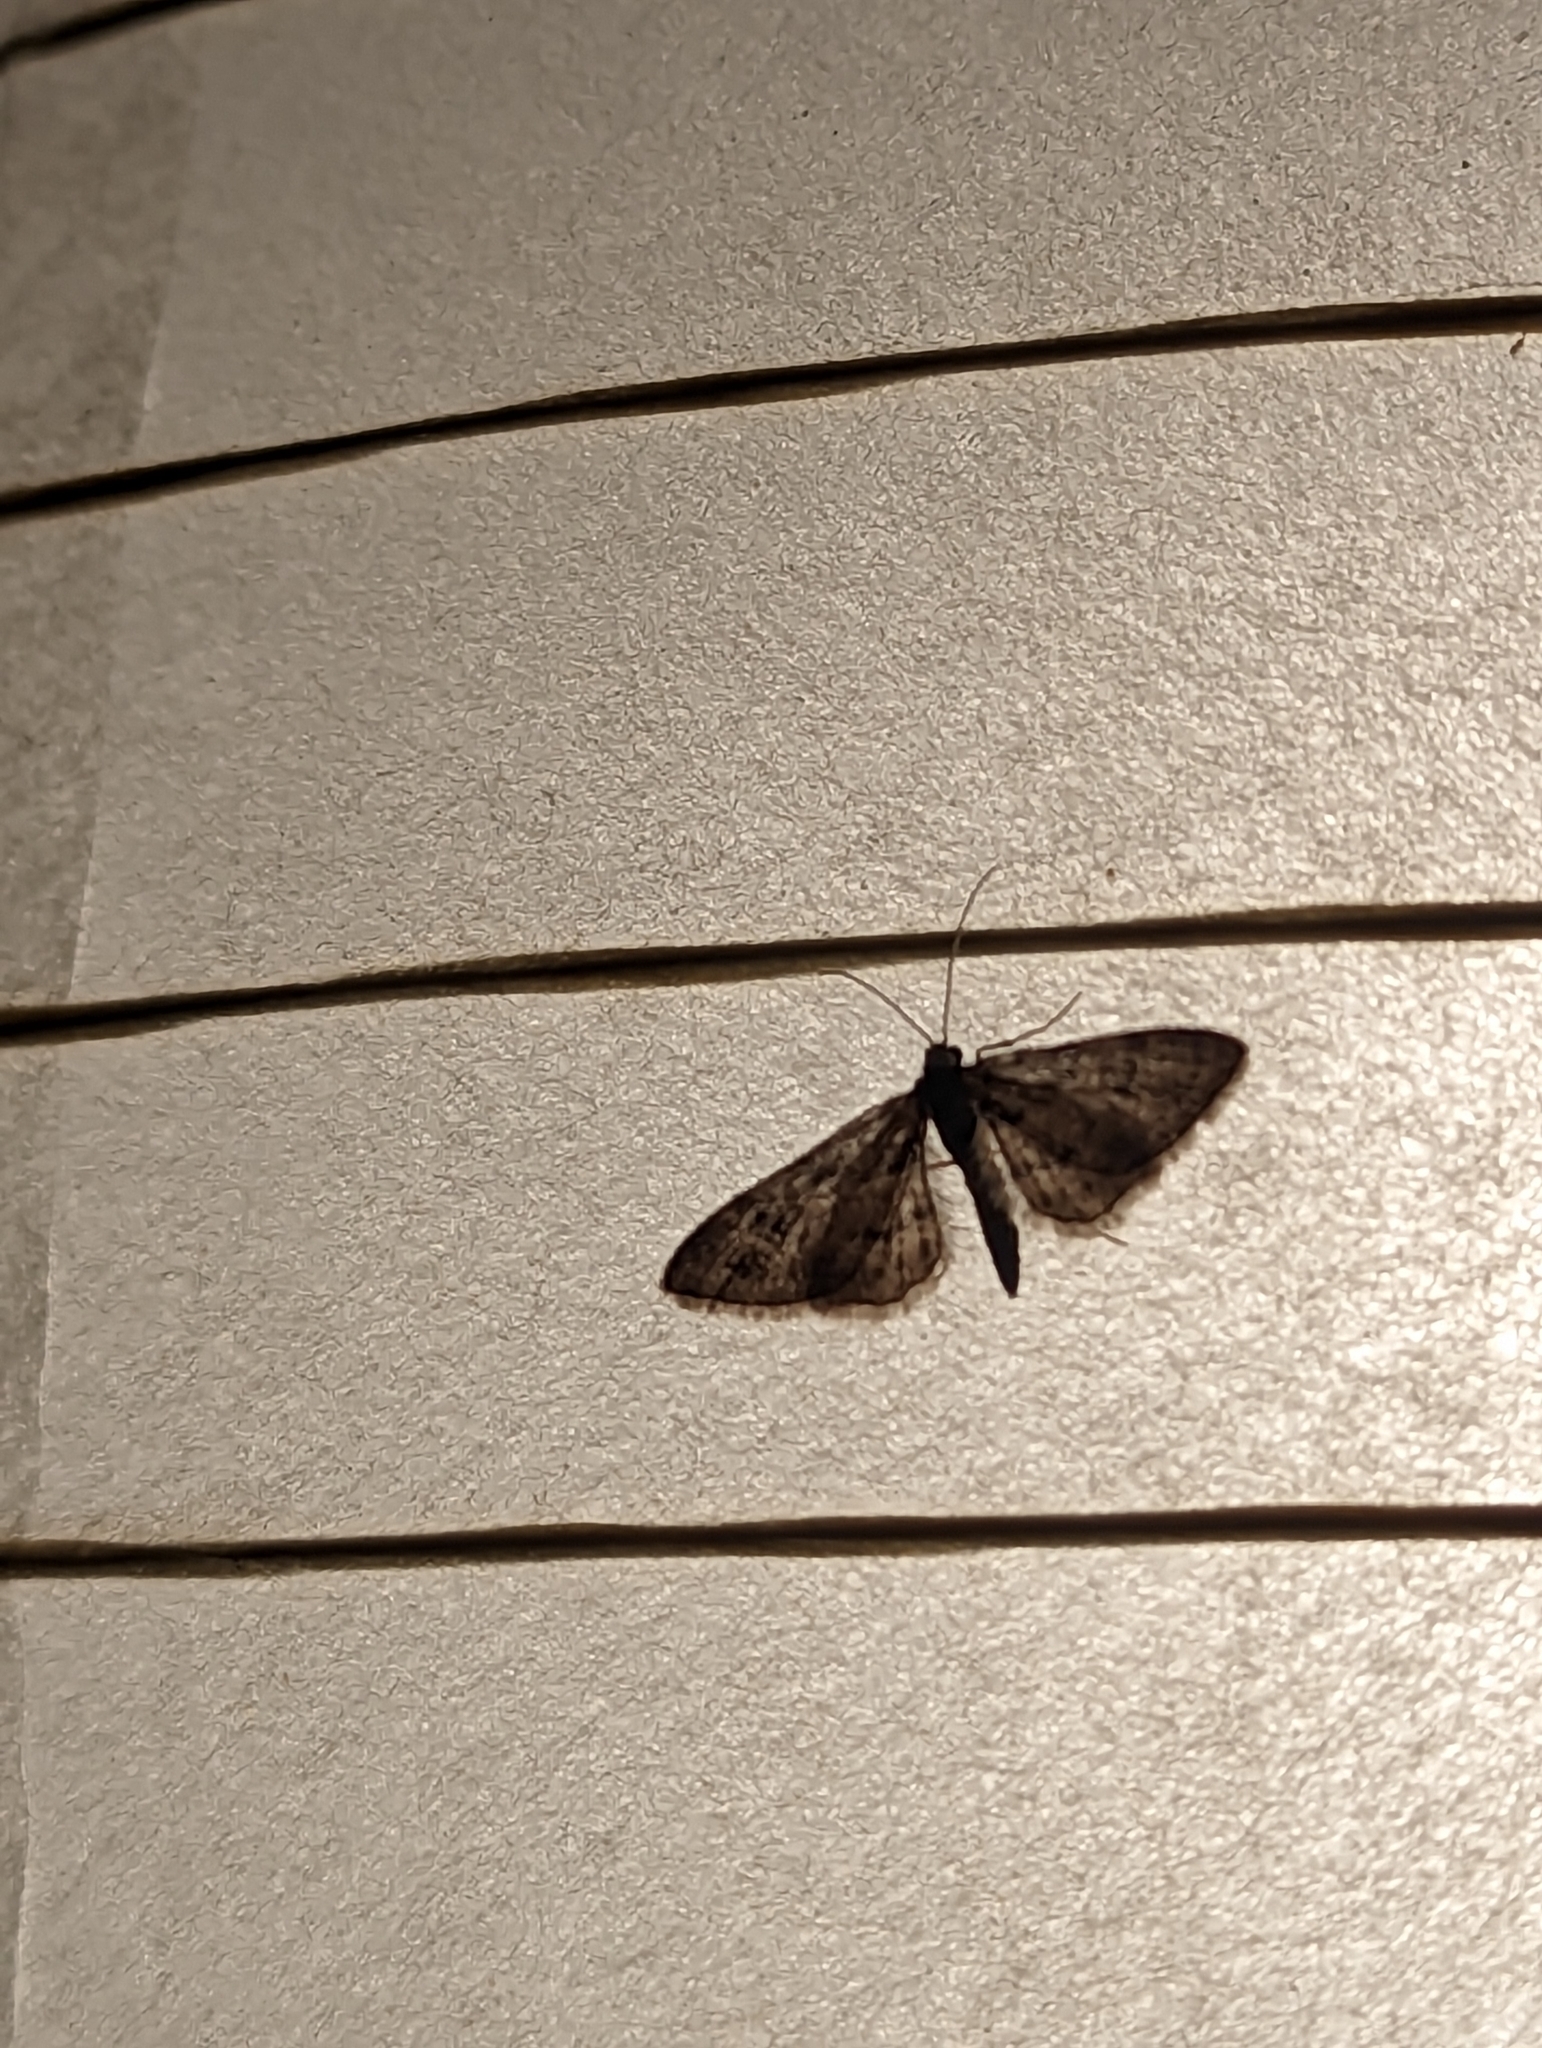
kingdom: Animalia
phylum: Arthropoda
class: Insecta
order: Lepidoptera
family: Geometridae
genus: Gymnoscelis
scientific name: Gymnoscelis rufifasciata
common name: Double-striped pug
